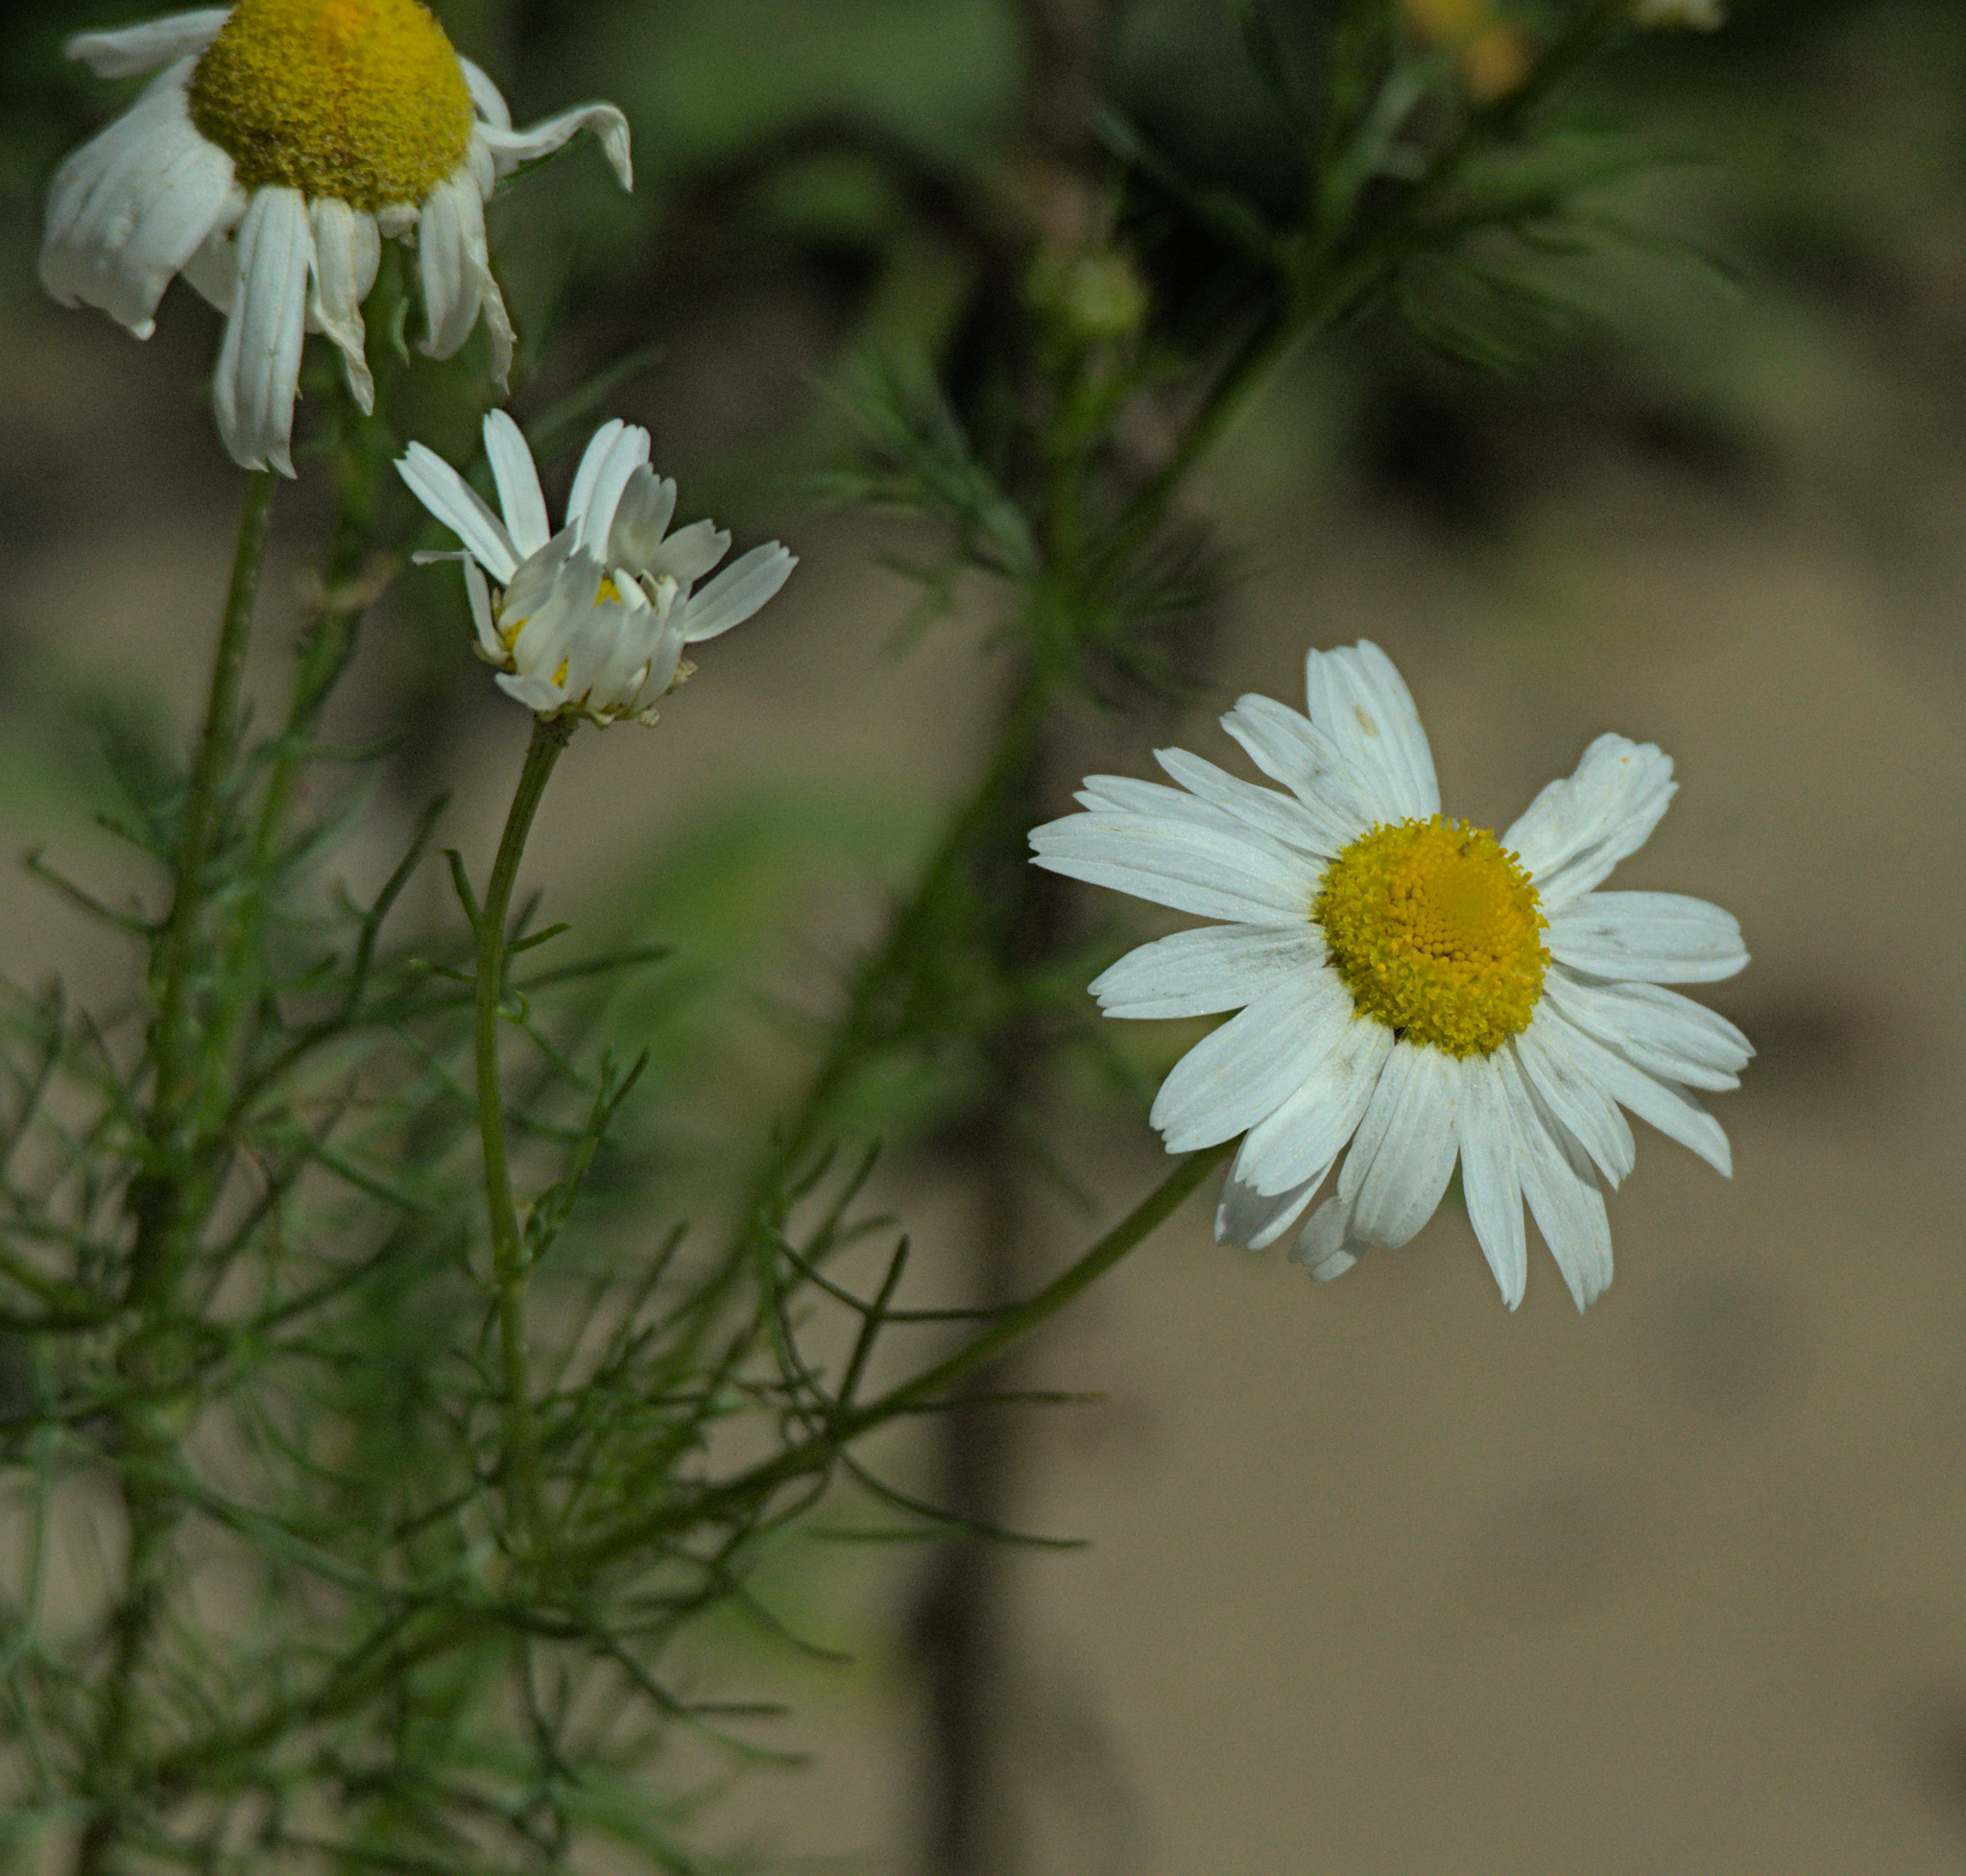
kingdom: Plantae
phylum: Tracheophyta
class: Magnoliopsida
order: Asterales
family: Asteraceae
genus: Tripleurospermum
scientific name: Tripleurospermum inodorum
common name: Scentless mayweed
